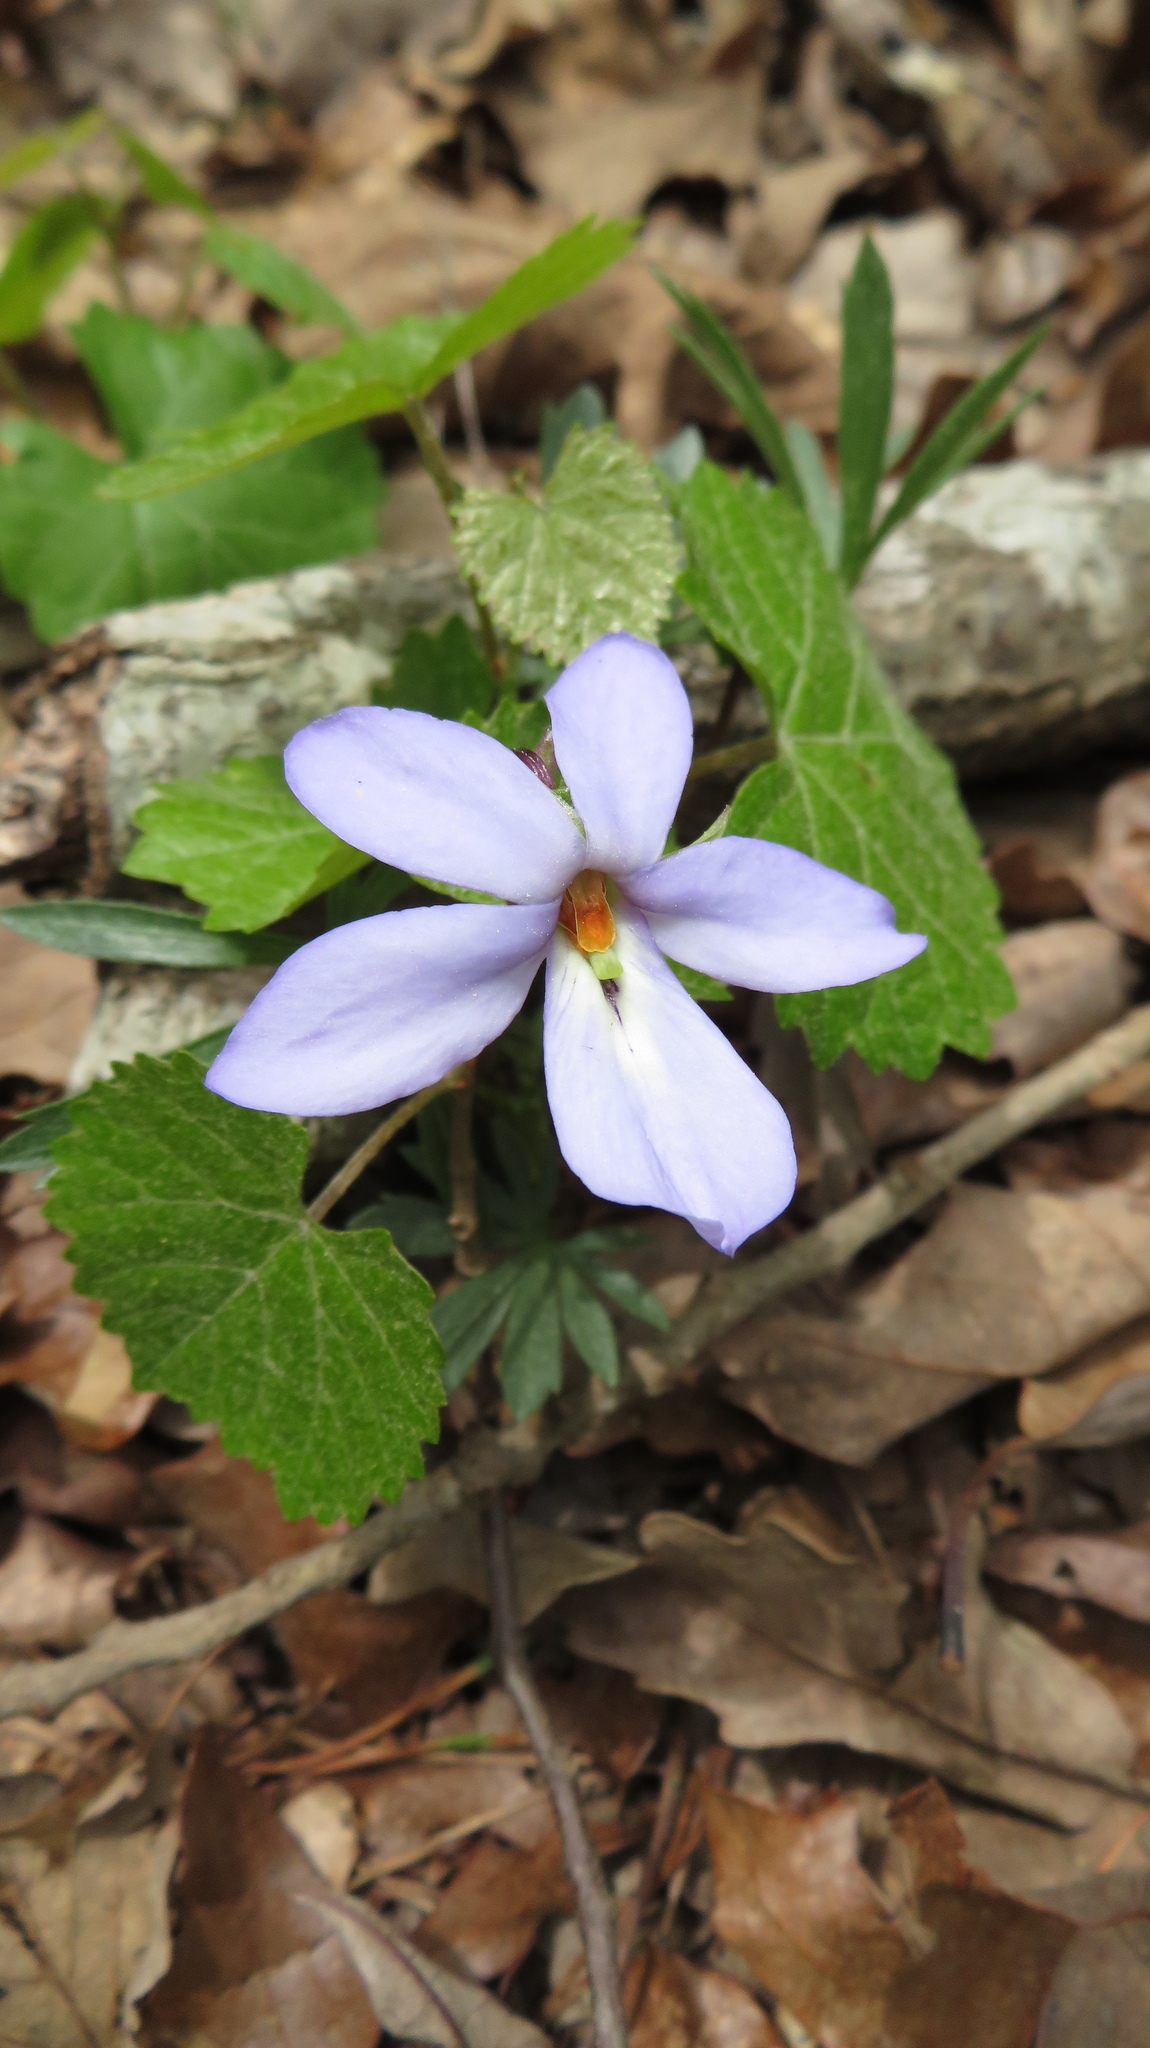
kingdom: Plantae
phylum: Tracheophyta
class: Magnoliopsida
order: Malpighiales
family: Violaceae
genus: Viola
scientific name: Viola pedata
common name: Pansy violet
